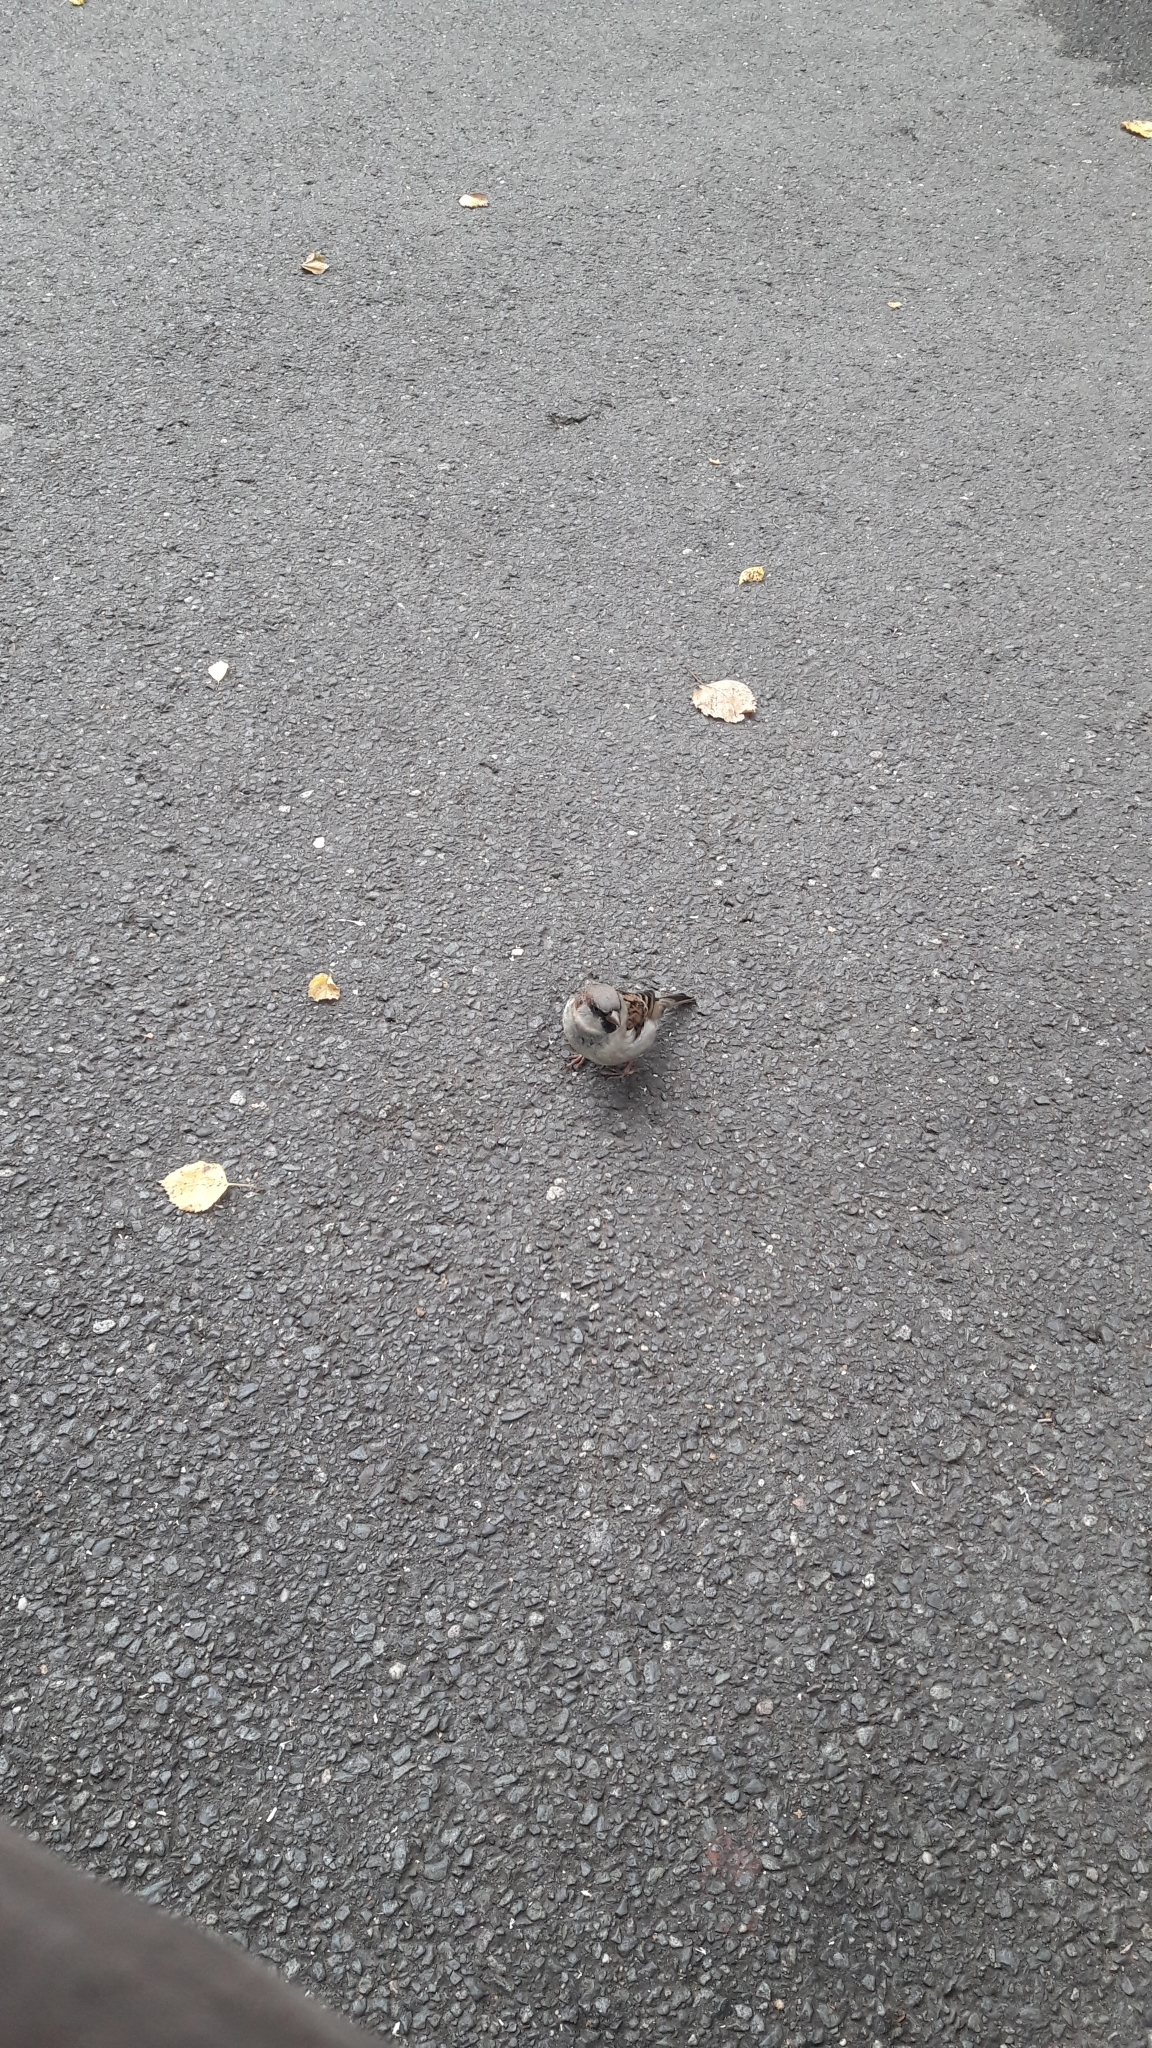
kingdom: Animalia
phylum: Chordata
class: Aves
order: Passeriformes
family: Passeridae
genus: Passer
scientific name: Passer domesticus
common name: House sparrow
